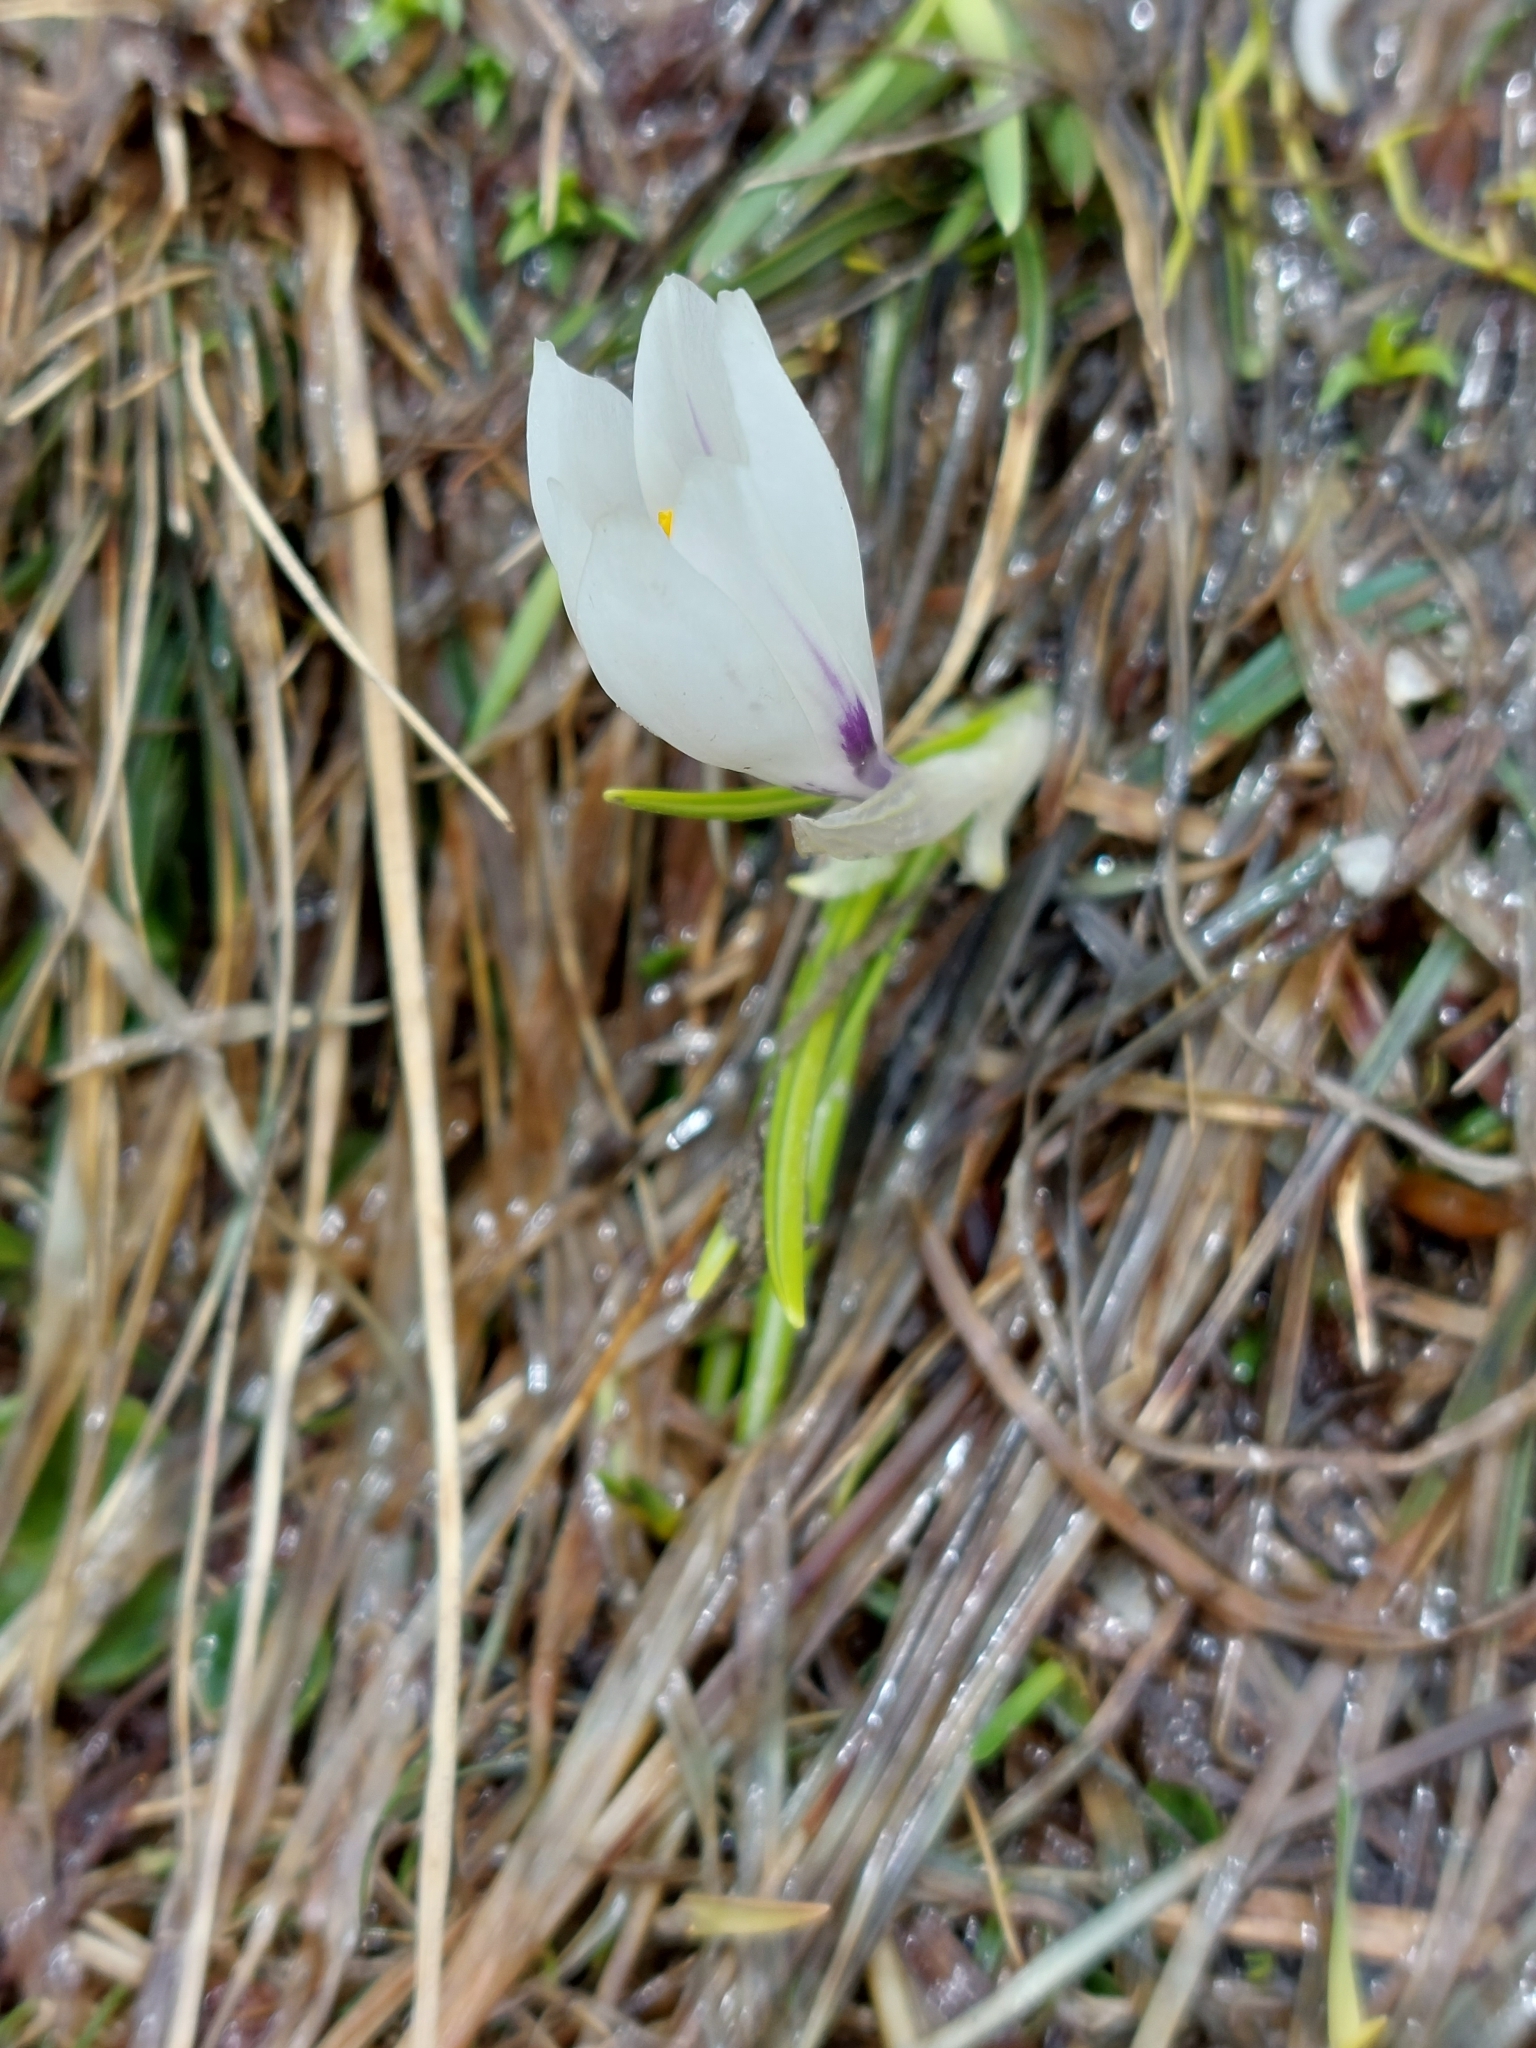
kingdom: Plantae
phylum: Tracheophyta
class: Liliopsida
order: Asparagales
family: Iridaceae
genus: Crocus
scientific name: Crocus vernus
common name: Spring crocus
